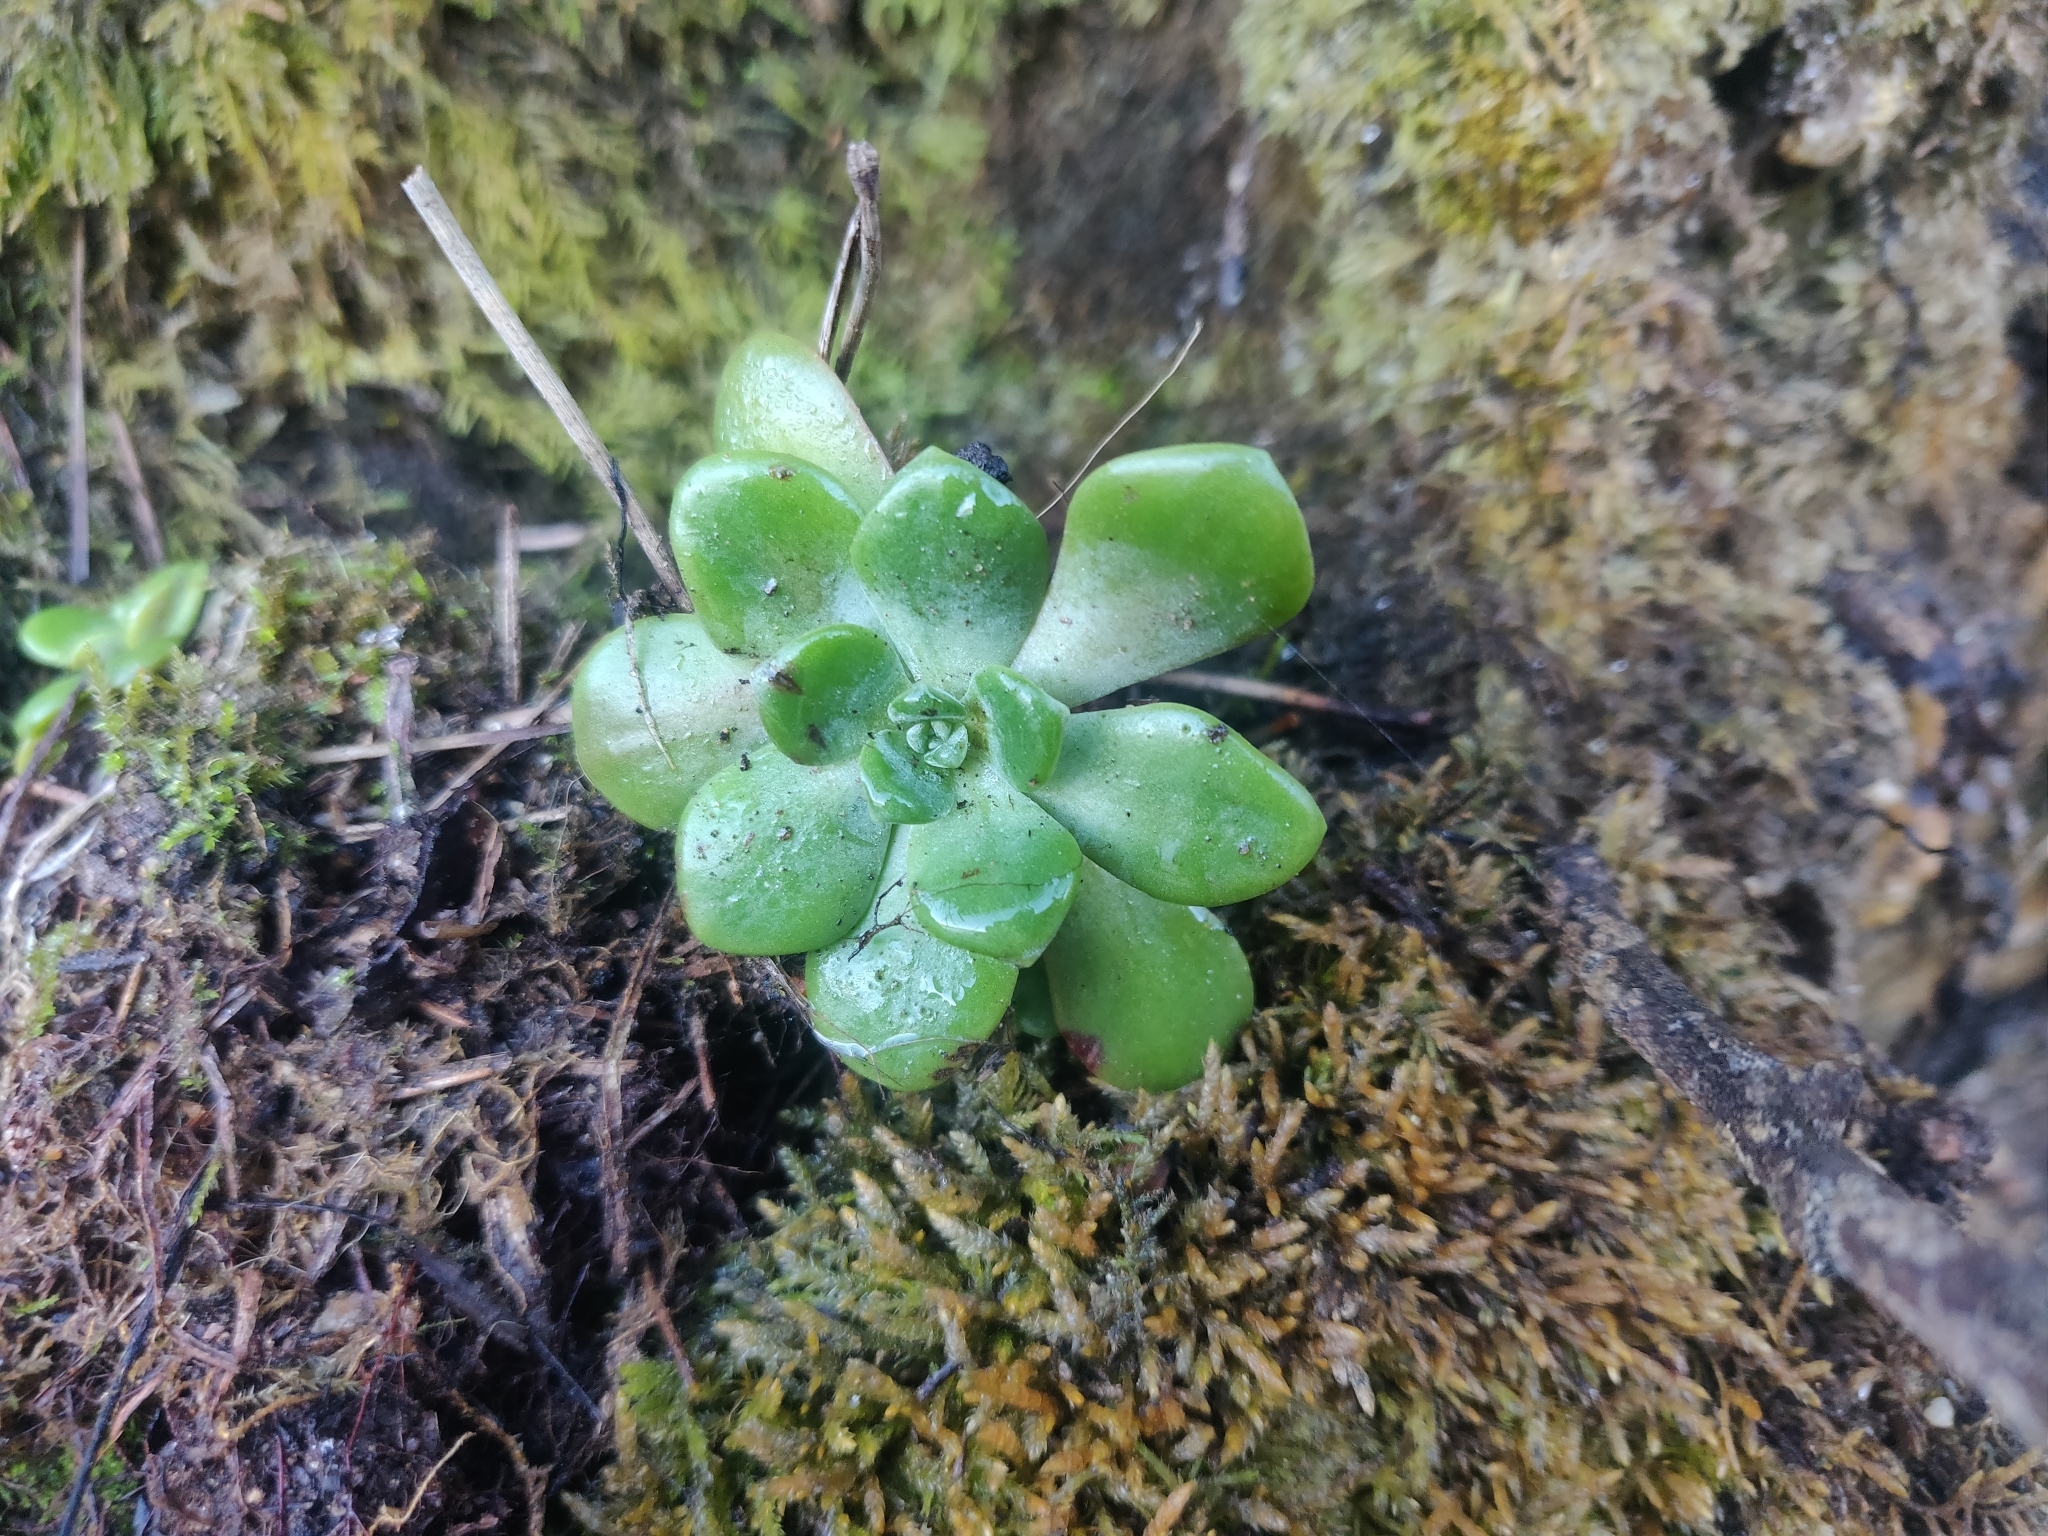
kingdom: Plantae
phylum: Tracheophyta
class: Magnoliopsida
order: Saxifragales
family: Crassulaceae
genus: Sedum
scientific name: Sedum spathulifolium
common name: Colorado stonecrop
